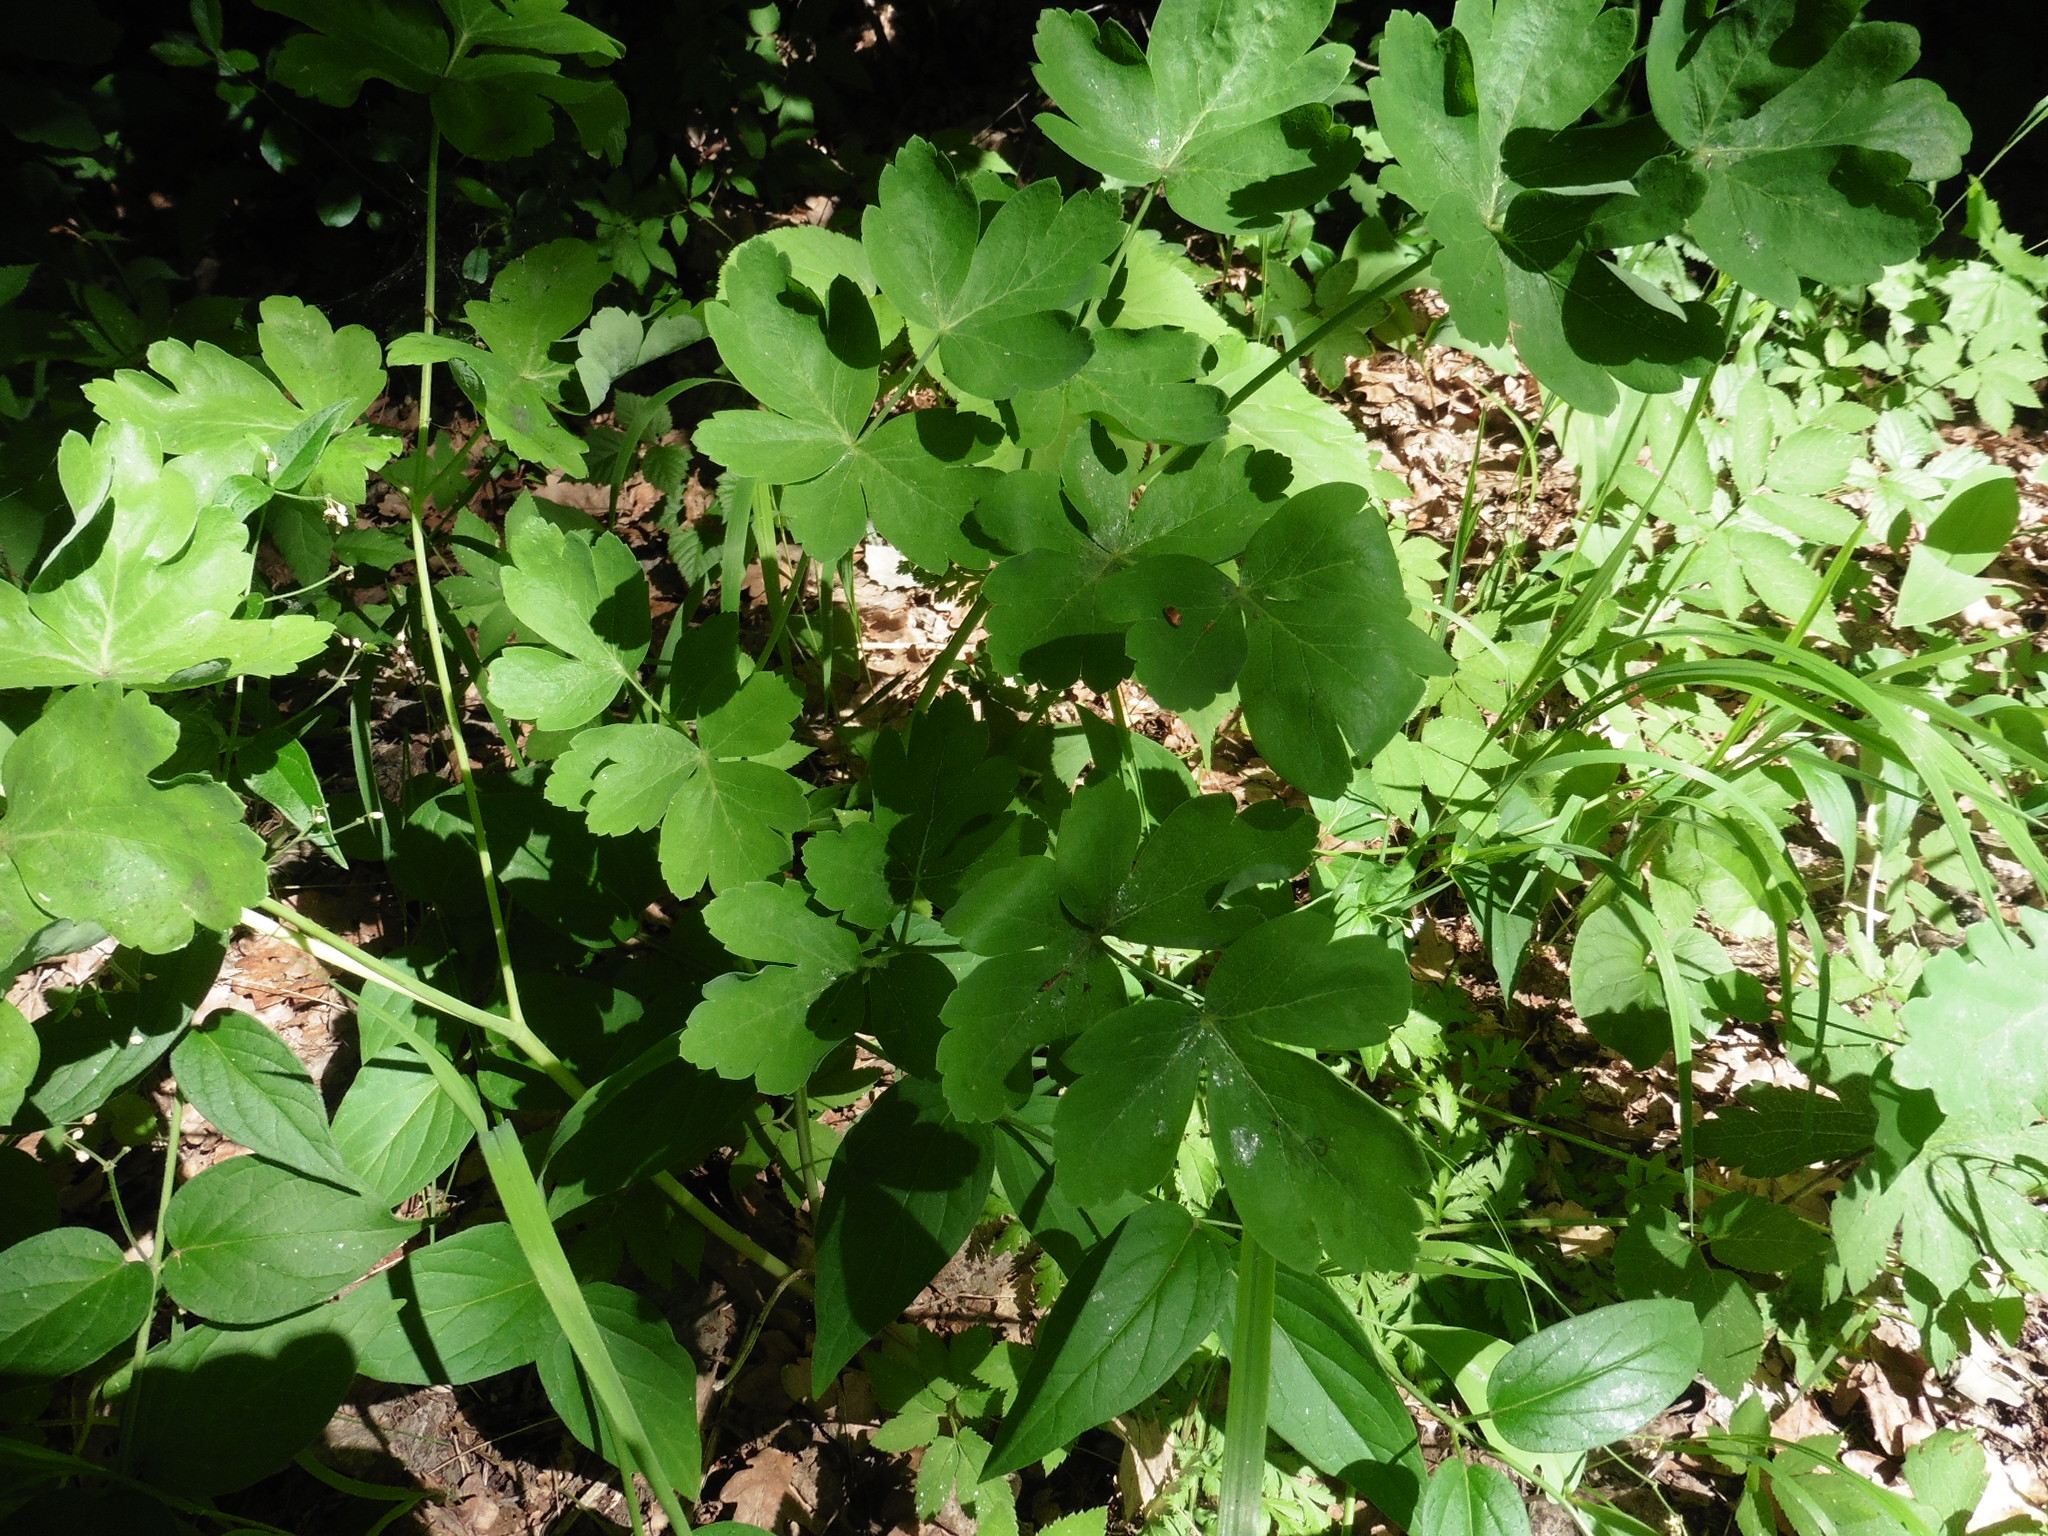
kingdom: Plantae
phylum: Tracheophyta
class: Magnoliopsida
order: Apiales
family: Apiaceae
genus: Laser
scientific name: Laser trilobum
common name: Laser
